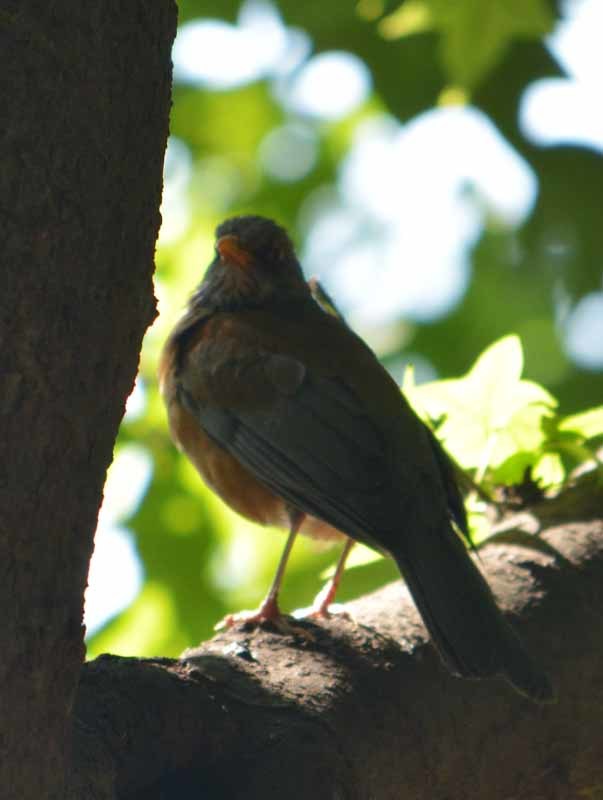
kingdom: Animalia
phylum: Chordata
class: Aves
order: Passeriformes
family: Turdidae
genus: Turdus
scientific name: Turdus rufopalliatus
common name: Rufous-backed robin
